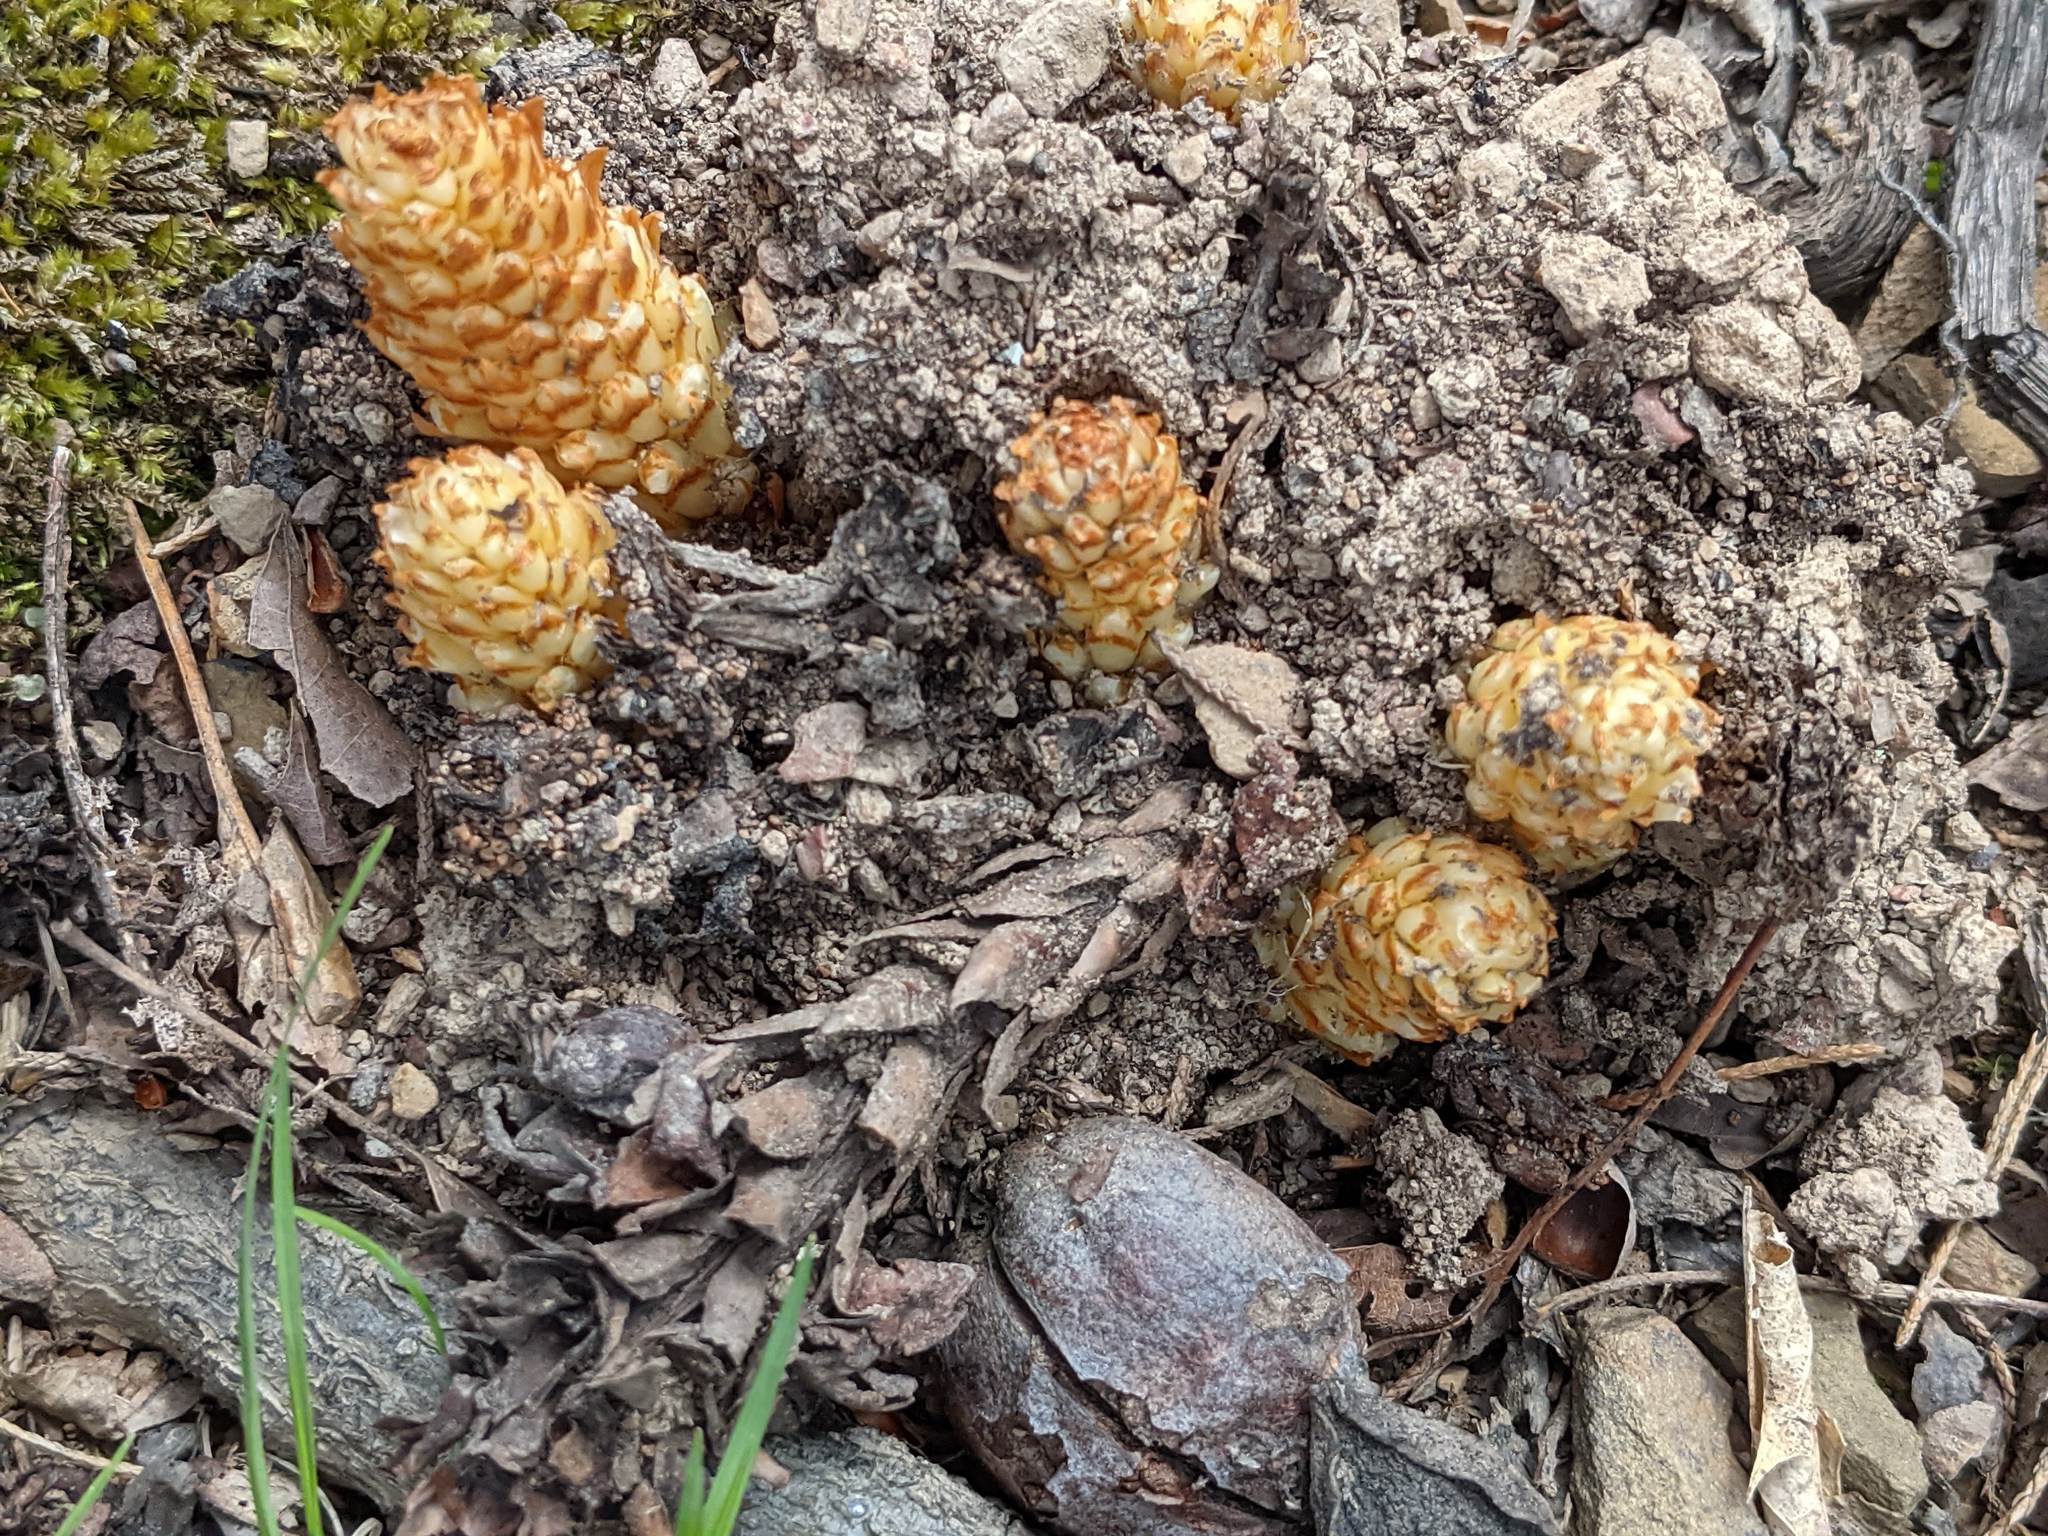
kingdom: Plantae
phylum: Tracheophyta
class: Magnoliopsida
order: Lamiales
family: Orobanchaceae
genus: Conopholis
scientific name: Conopholis americana
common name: American cancer-root
